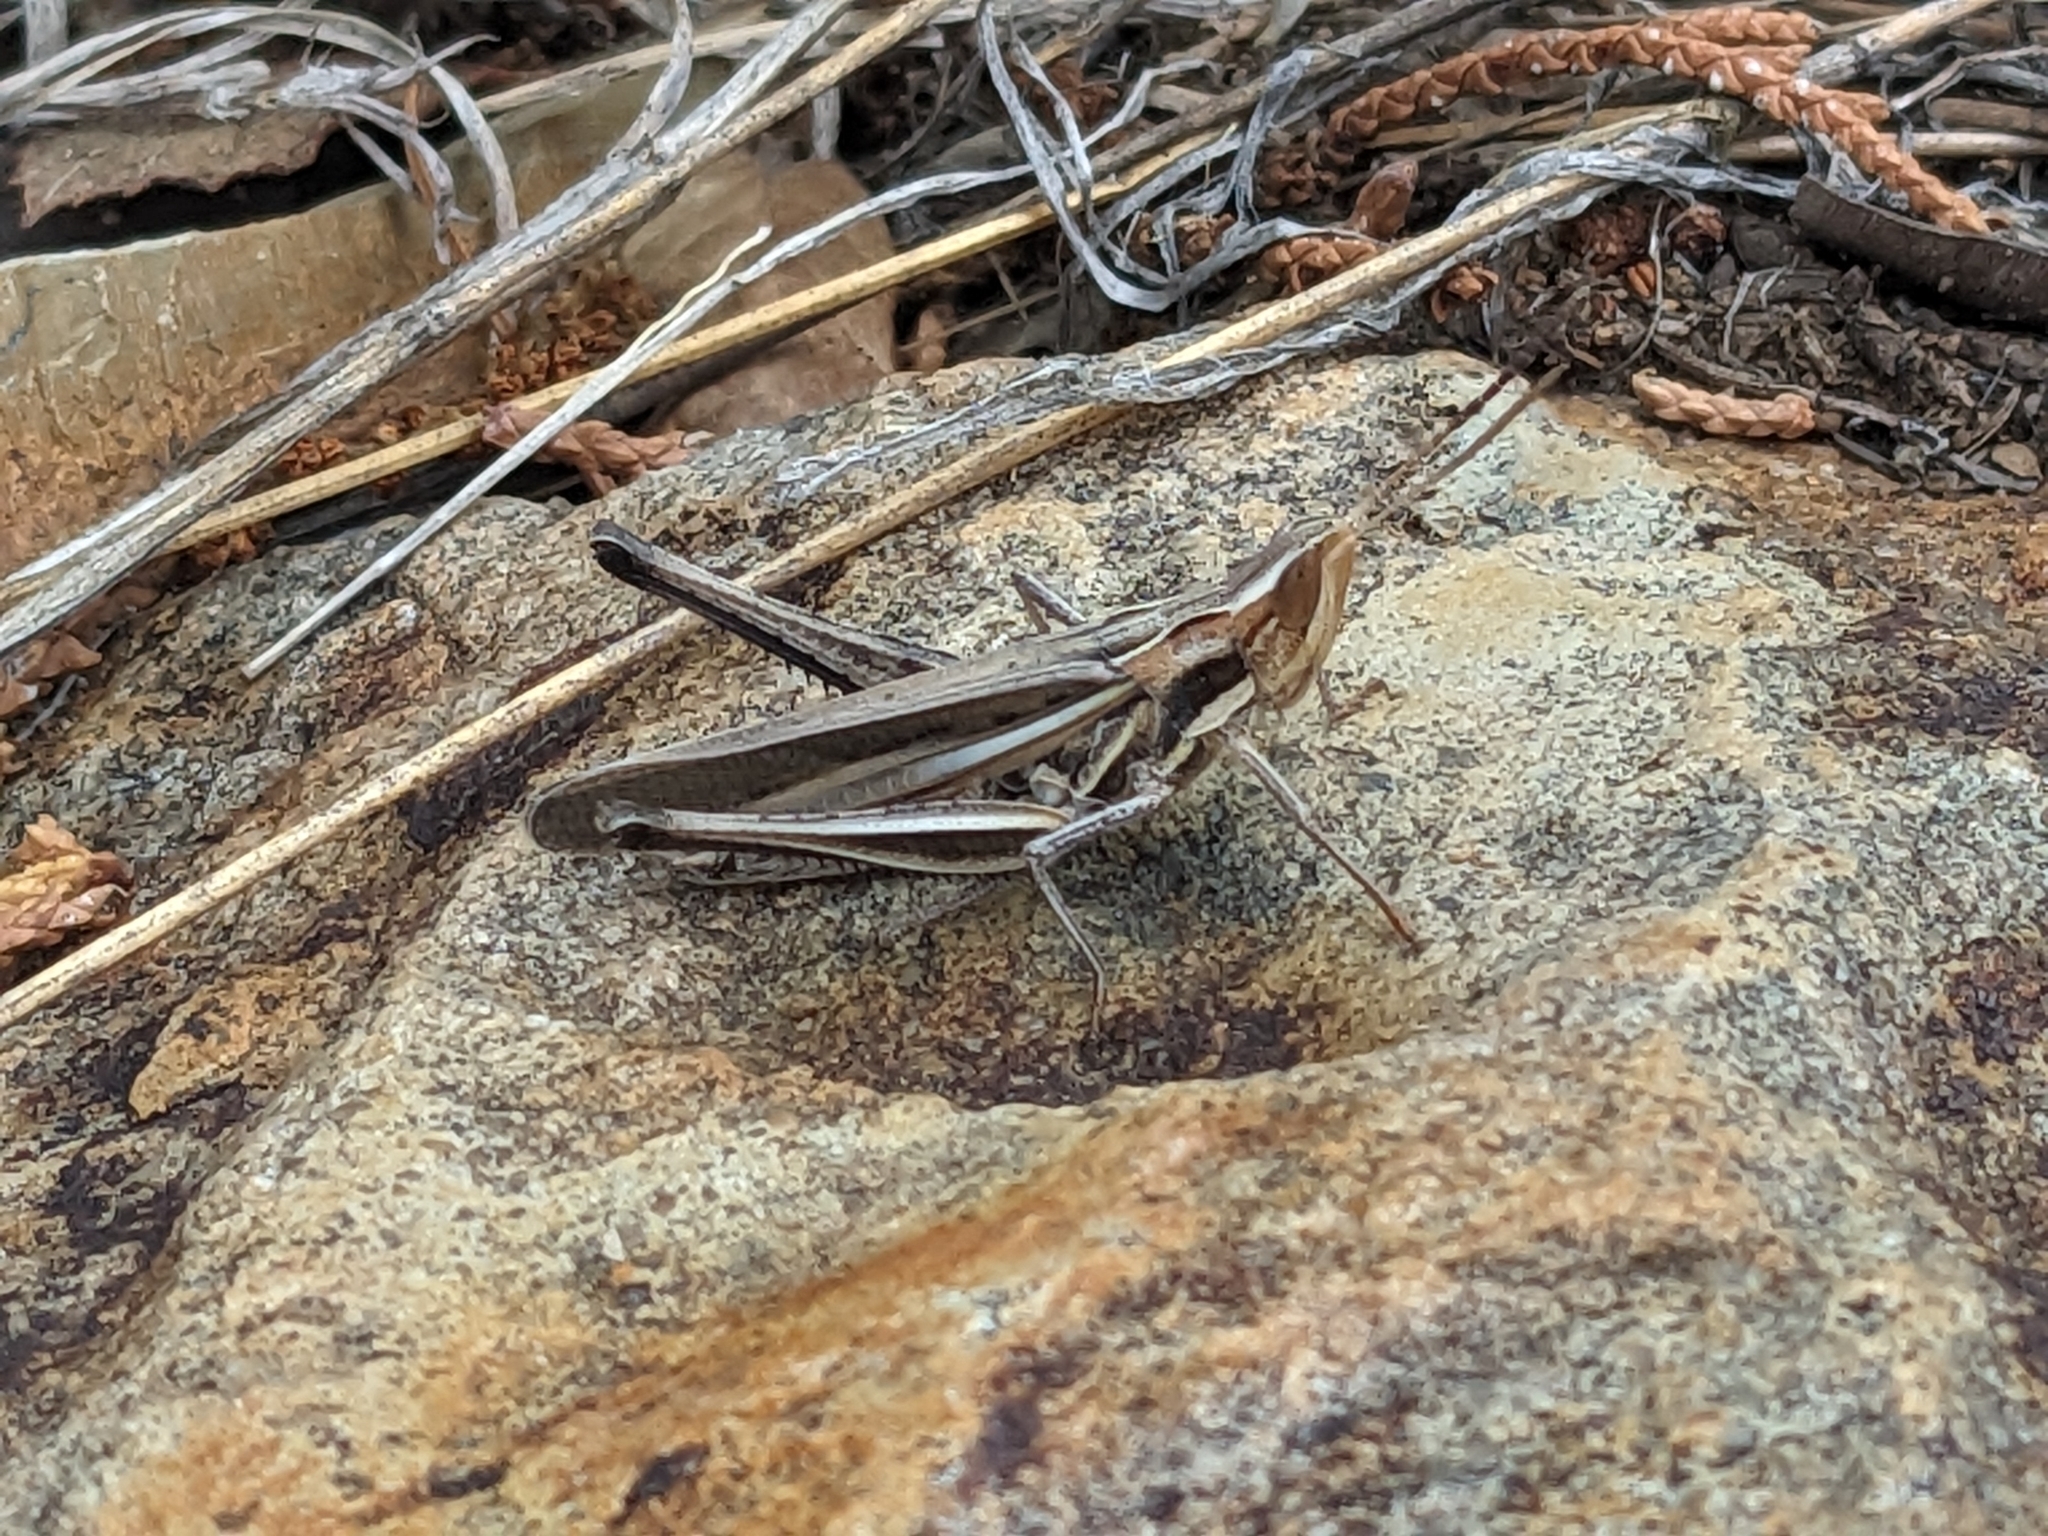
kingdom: Animalia
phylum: Arthropoda
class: Insecta
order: Orthoptera
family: Acrididae
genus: Syrbula
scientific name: Syrbula montezuma
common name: Montezuma's grasshopper
